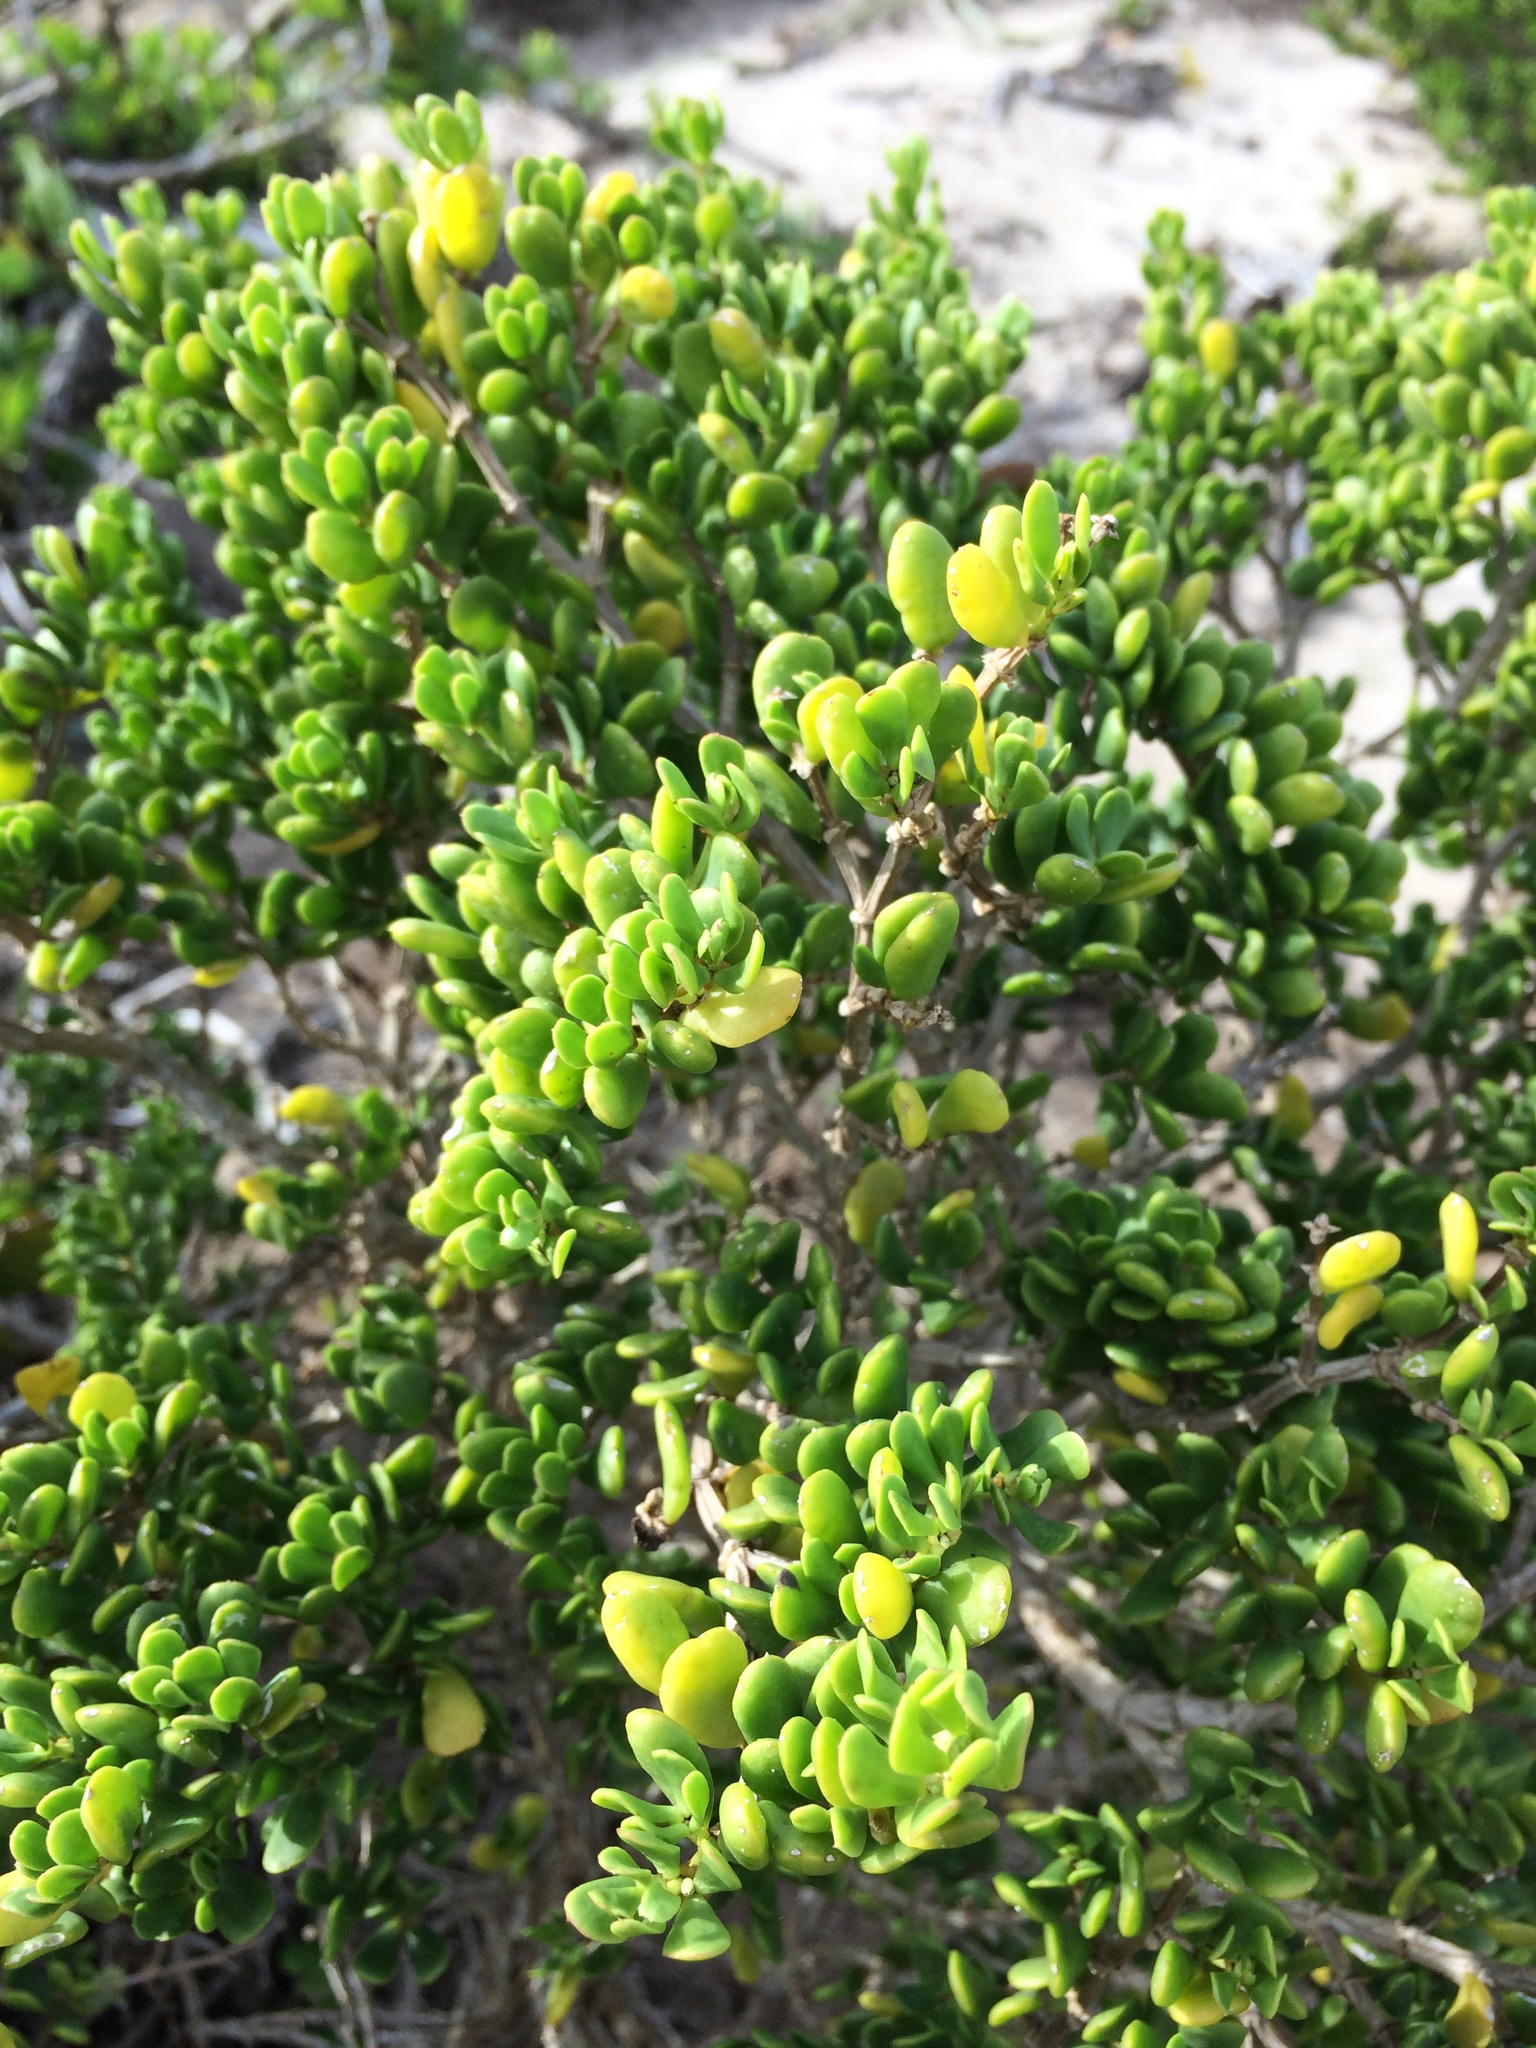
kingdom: Plantae
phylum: Tracheophyta
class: Magnoliopsida
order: Zygophyllales
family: Zygophyllaceae
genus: Roepera
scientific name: Roepera flexuosa
